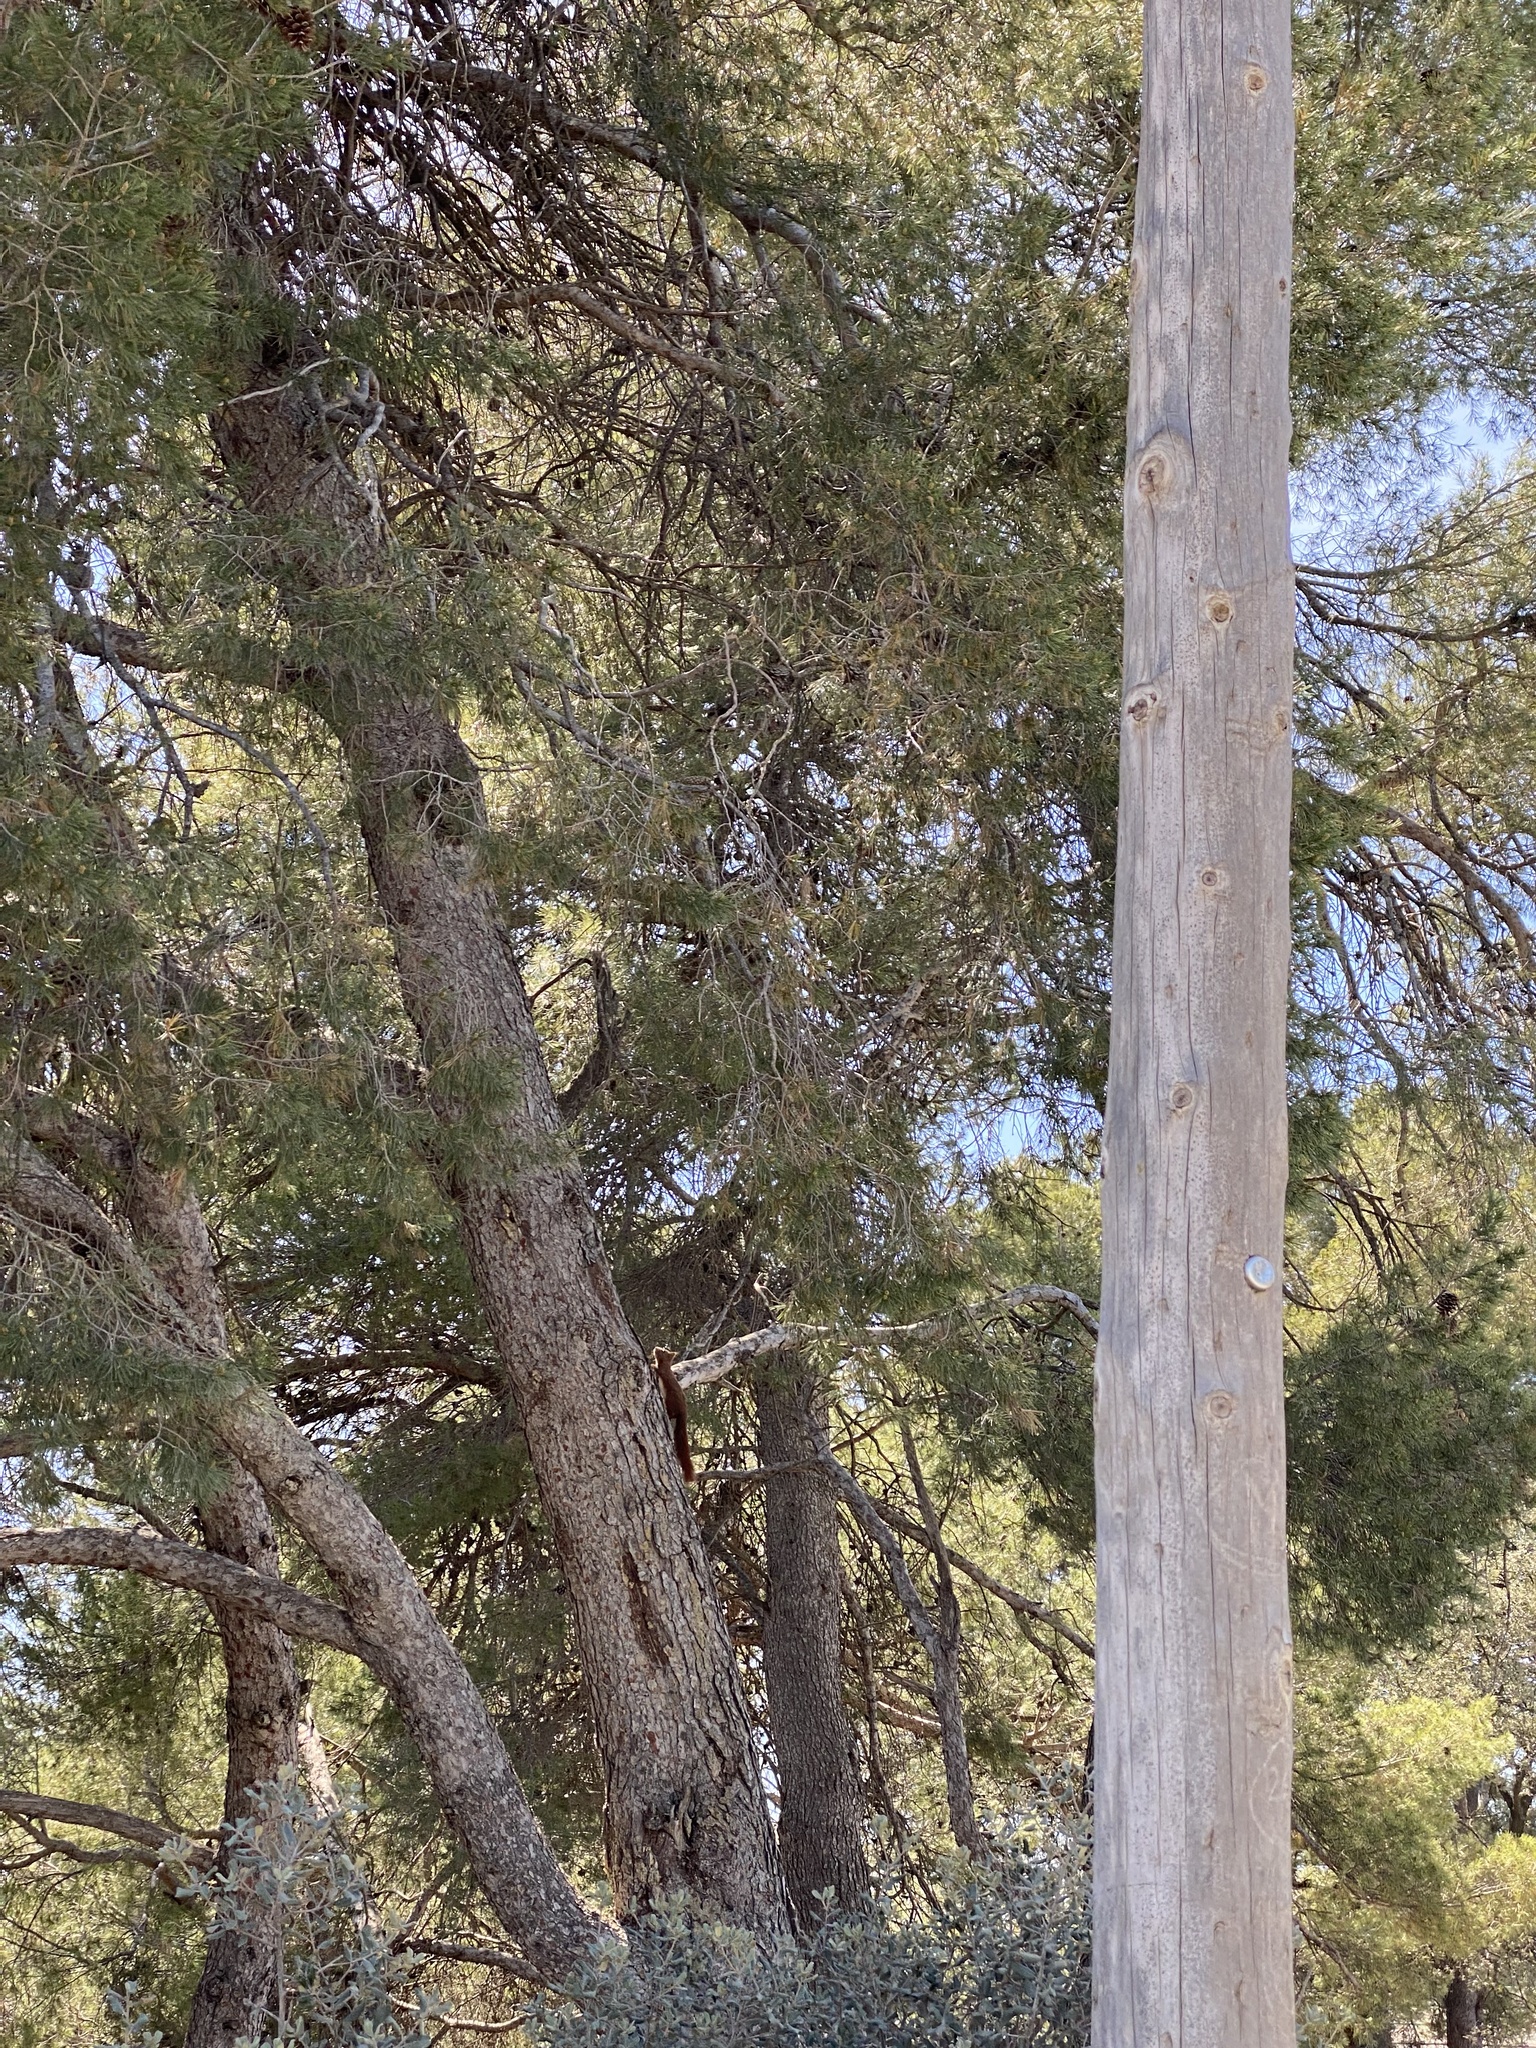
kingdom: Animalia
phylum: Chordata
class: Mammalia
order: Rodentia
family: Sciuridae
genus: Sciurus
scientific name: Sciurus vulgaris
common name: Eurasian red squirrel
